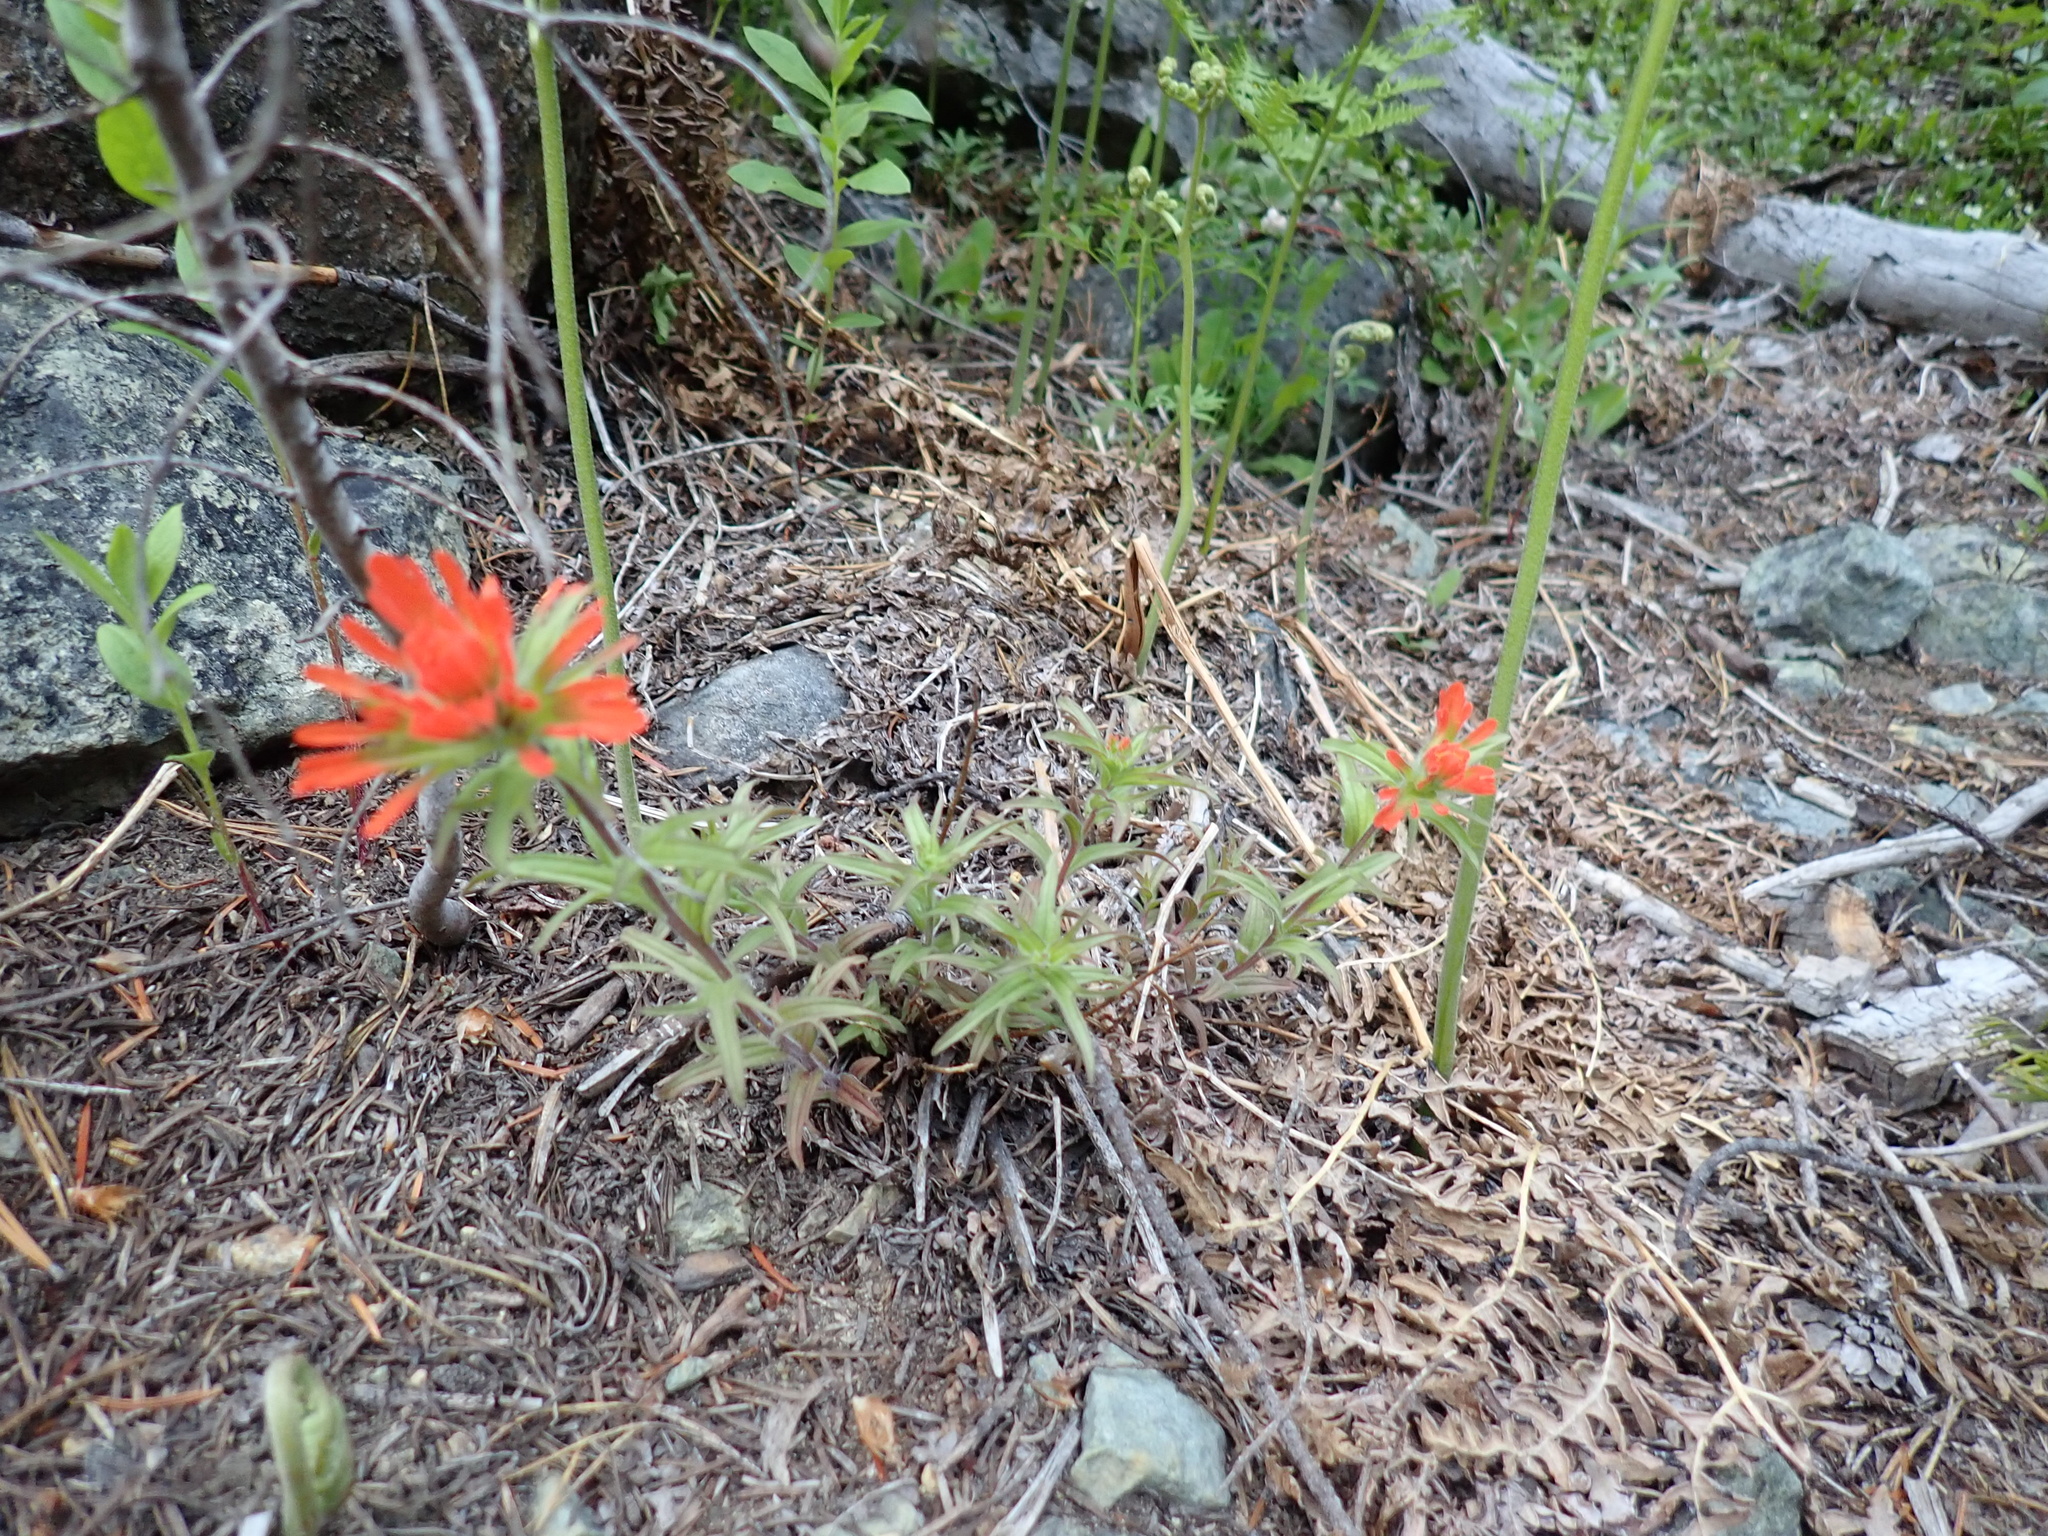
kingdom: Plantae
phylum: Tracheophyta
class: Magnoliopsida
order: Lamiales
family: Orobanchaceae
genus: Castilleja
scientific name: Castilleja hispida
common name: Bristly paintbrush
